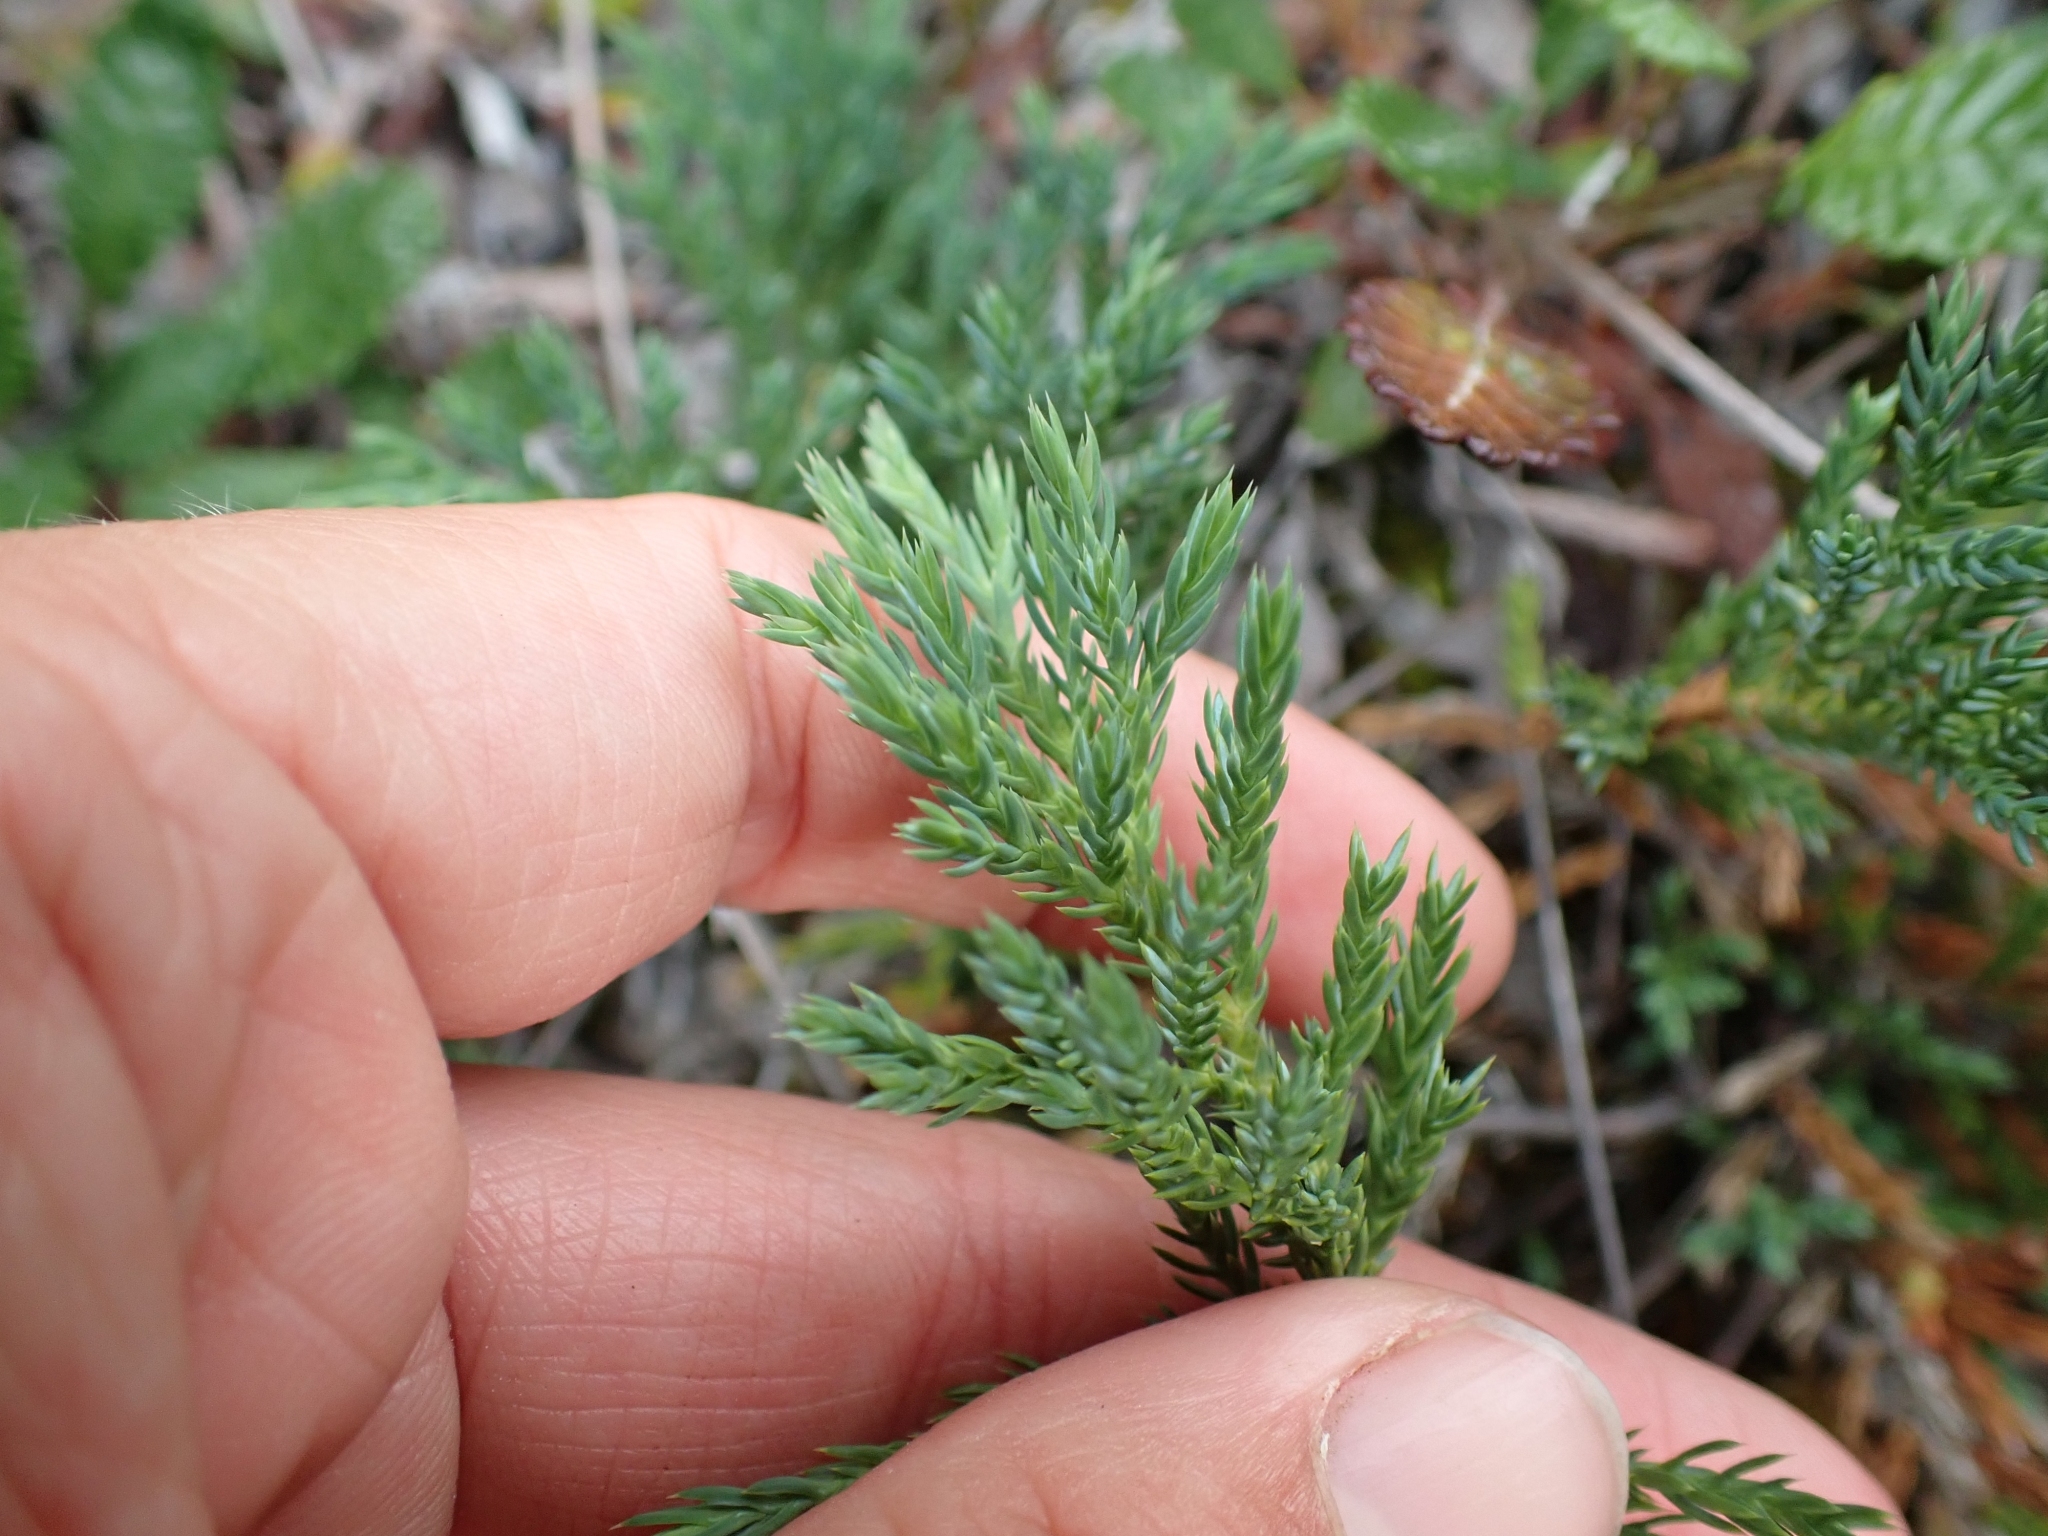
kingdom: Plantae
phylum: Tracheophyta
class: Pinopsida
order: Pinales
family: Cupressaceae
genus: Juniperus
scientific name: Juniperus horizontalis
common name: Creeping juniper
